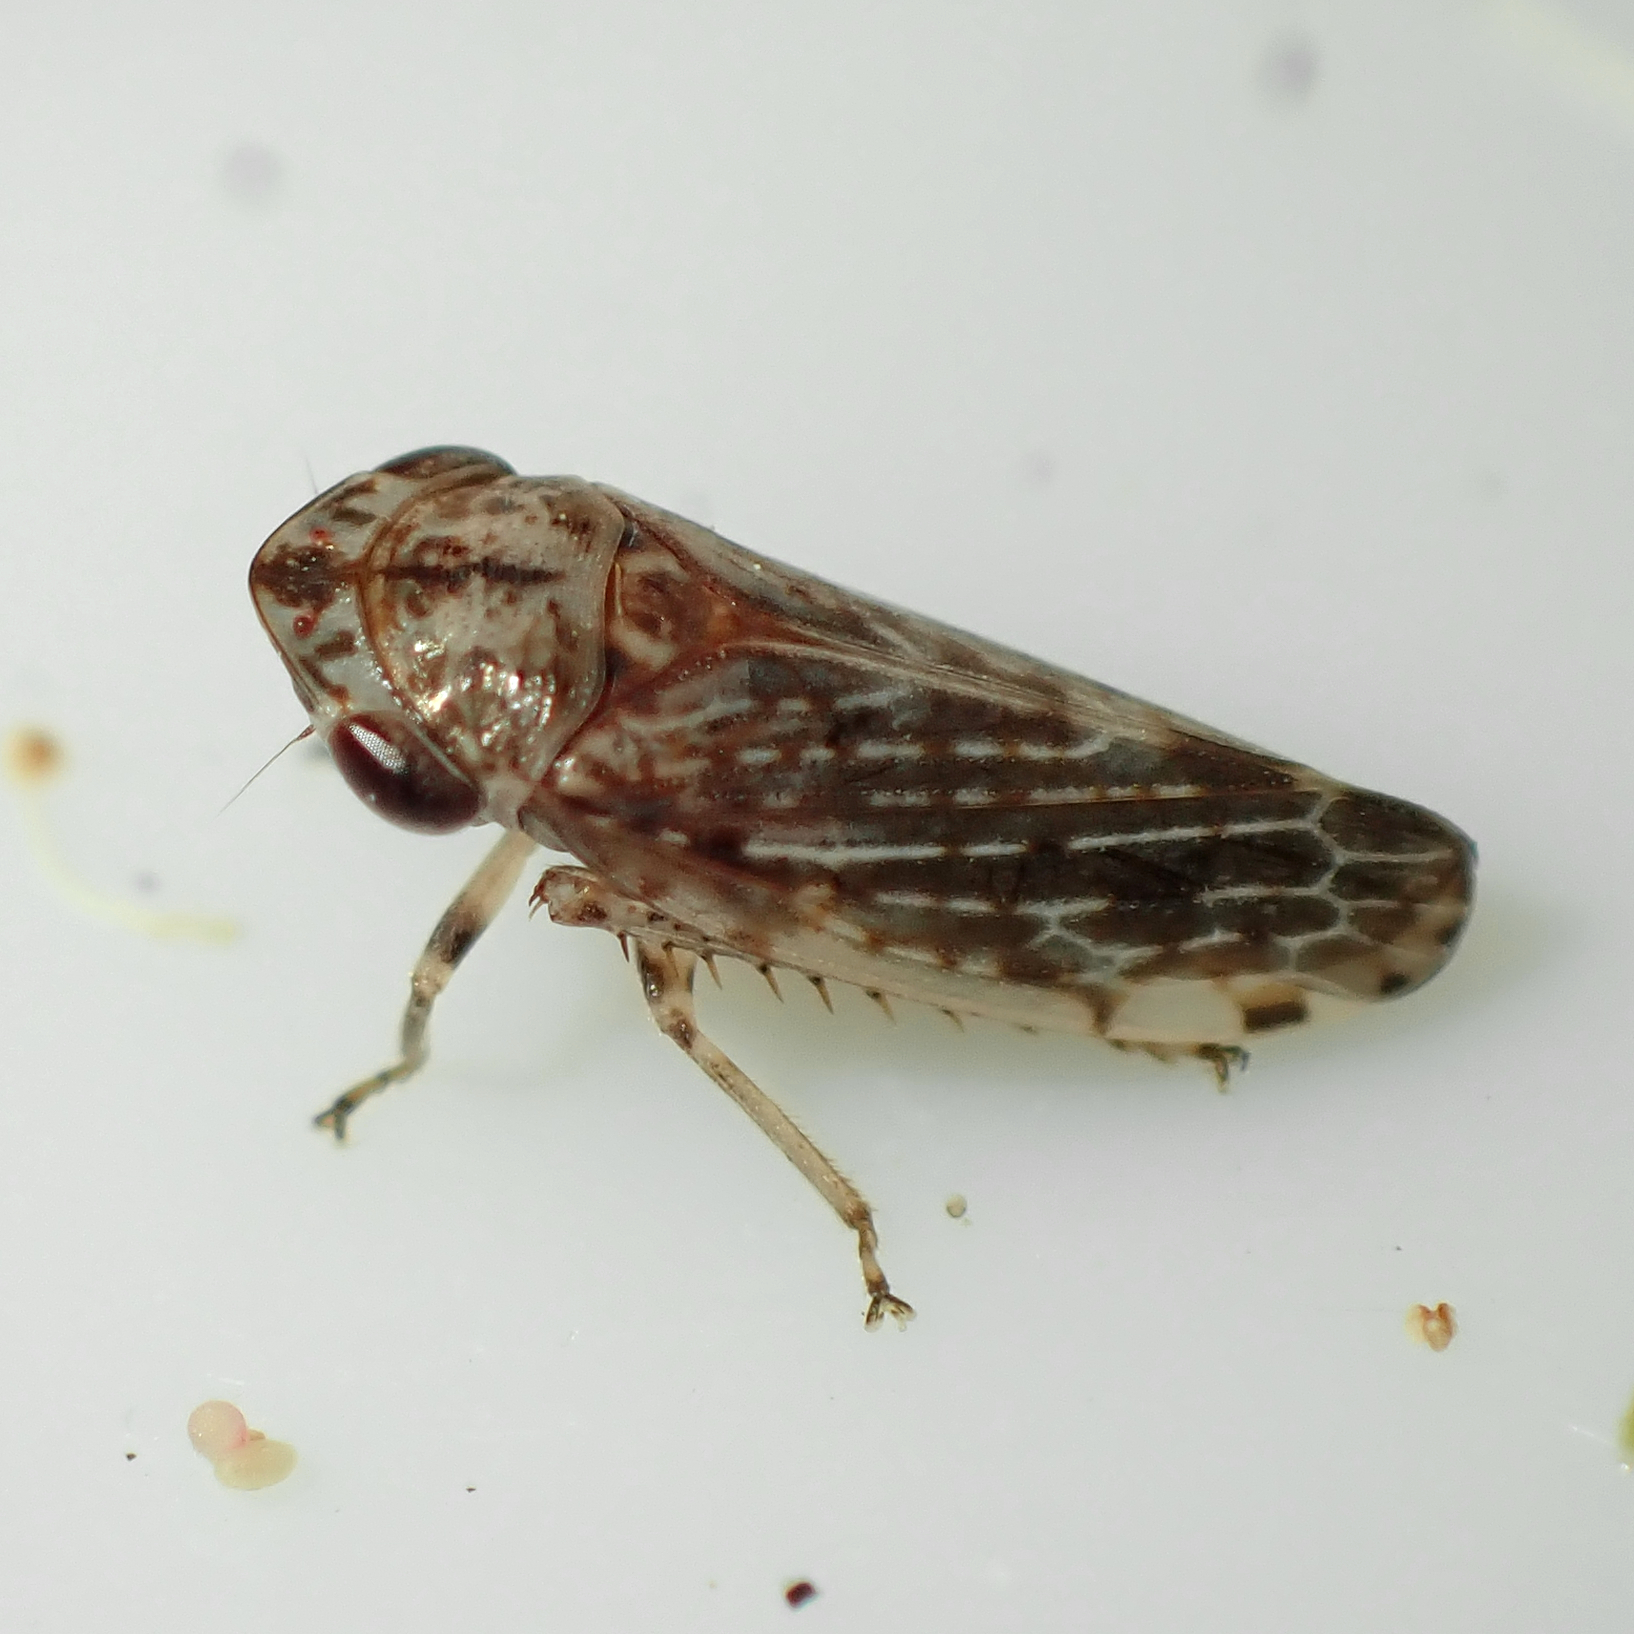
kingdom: Animalia
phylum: Arthropoda
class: Insecta
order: Hemiptera
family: Cicadellidae
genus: Novothymbris
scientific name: Novothymbris notata
